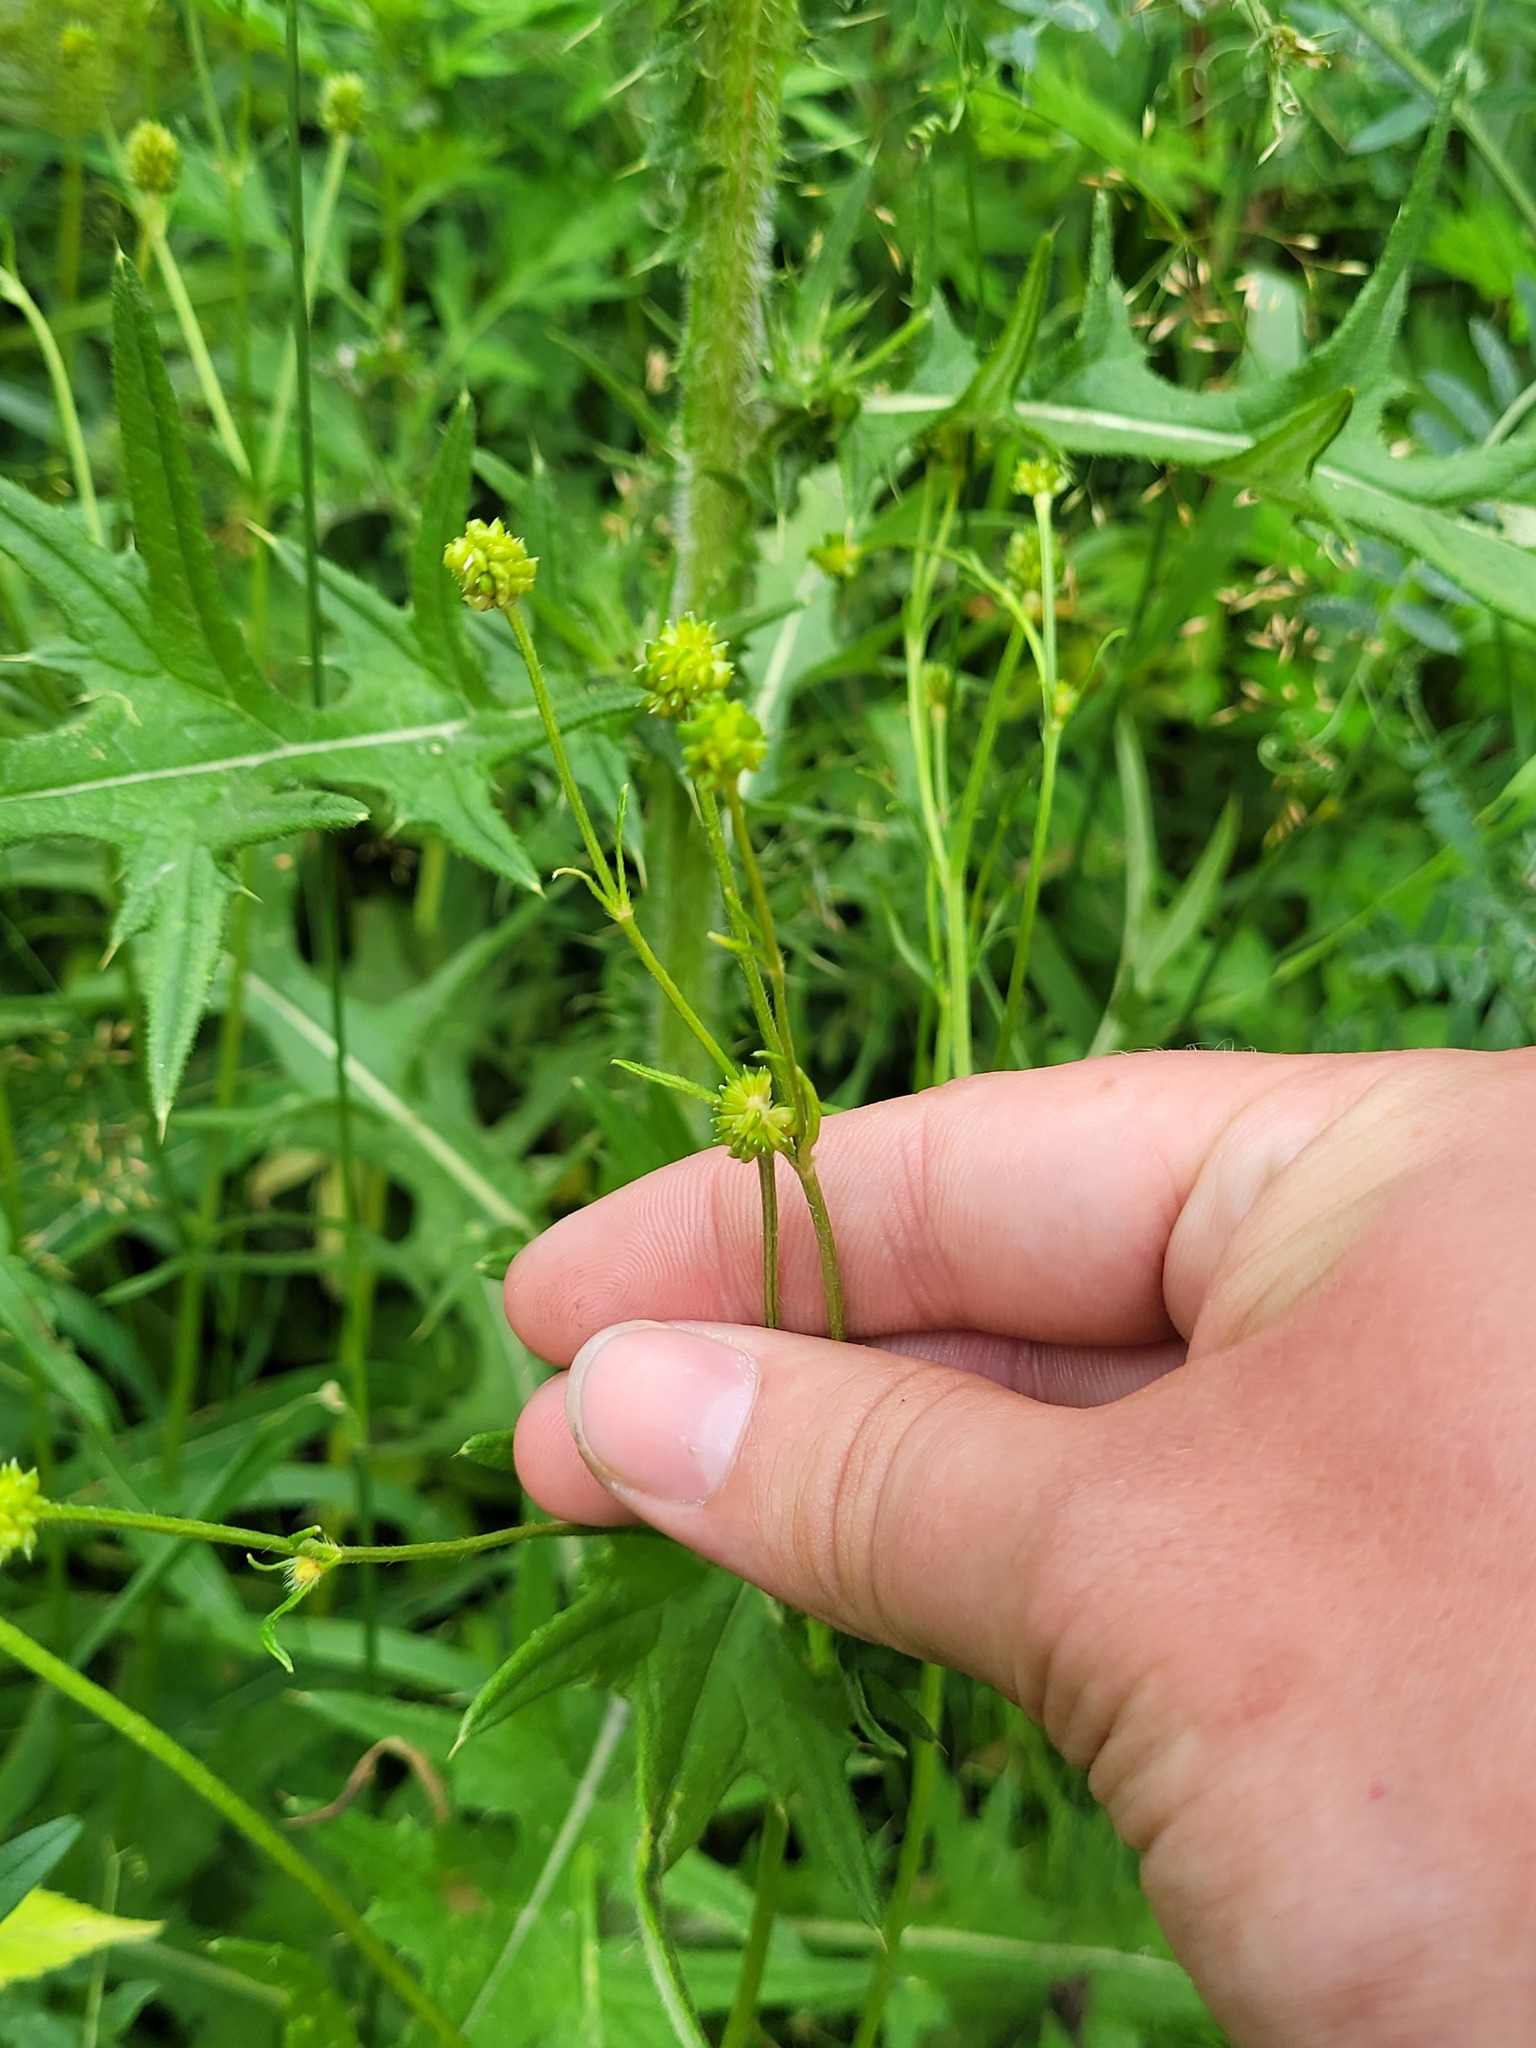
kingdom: Plantae
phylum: Tracheophyta
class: Magnoliopsida
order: Ranunculales
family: Ranunculaceae
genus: Ranunculus
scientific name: Ranunculus polyanthemos
